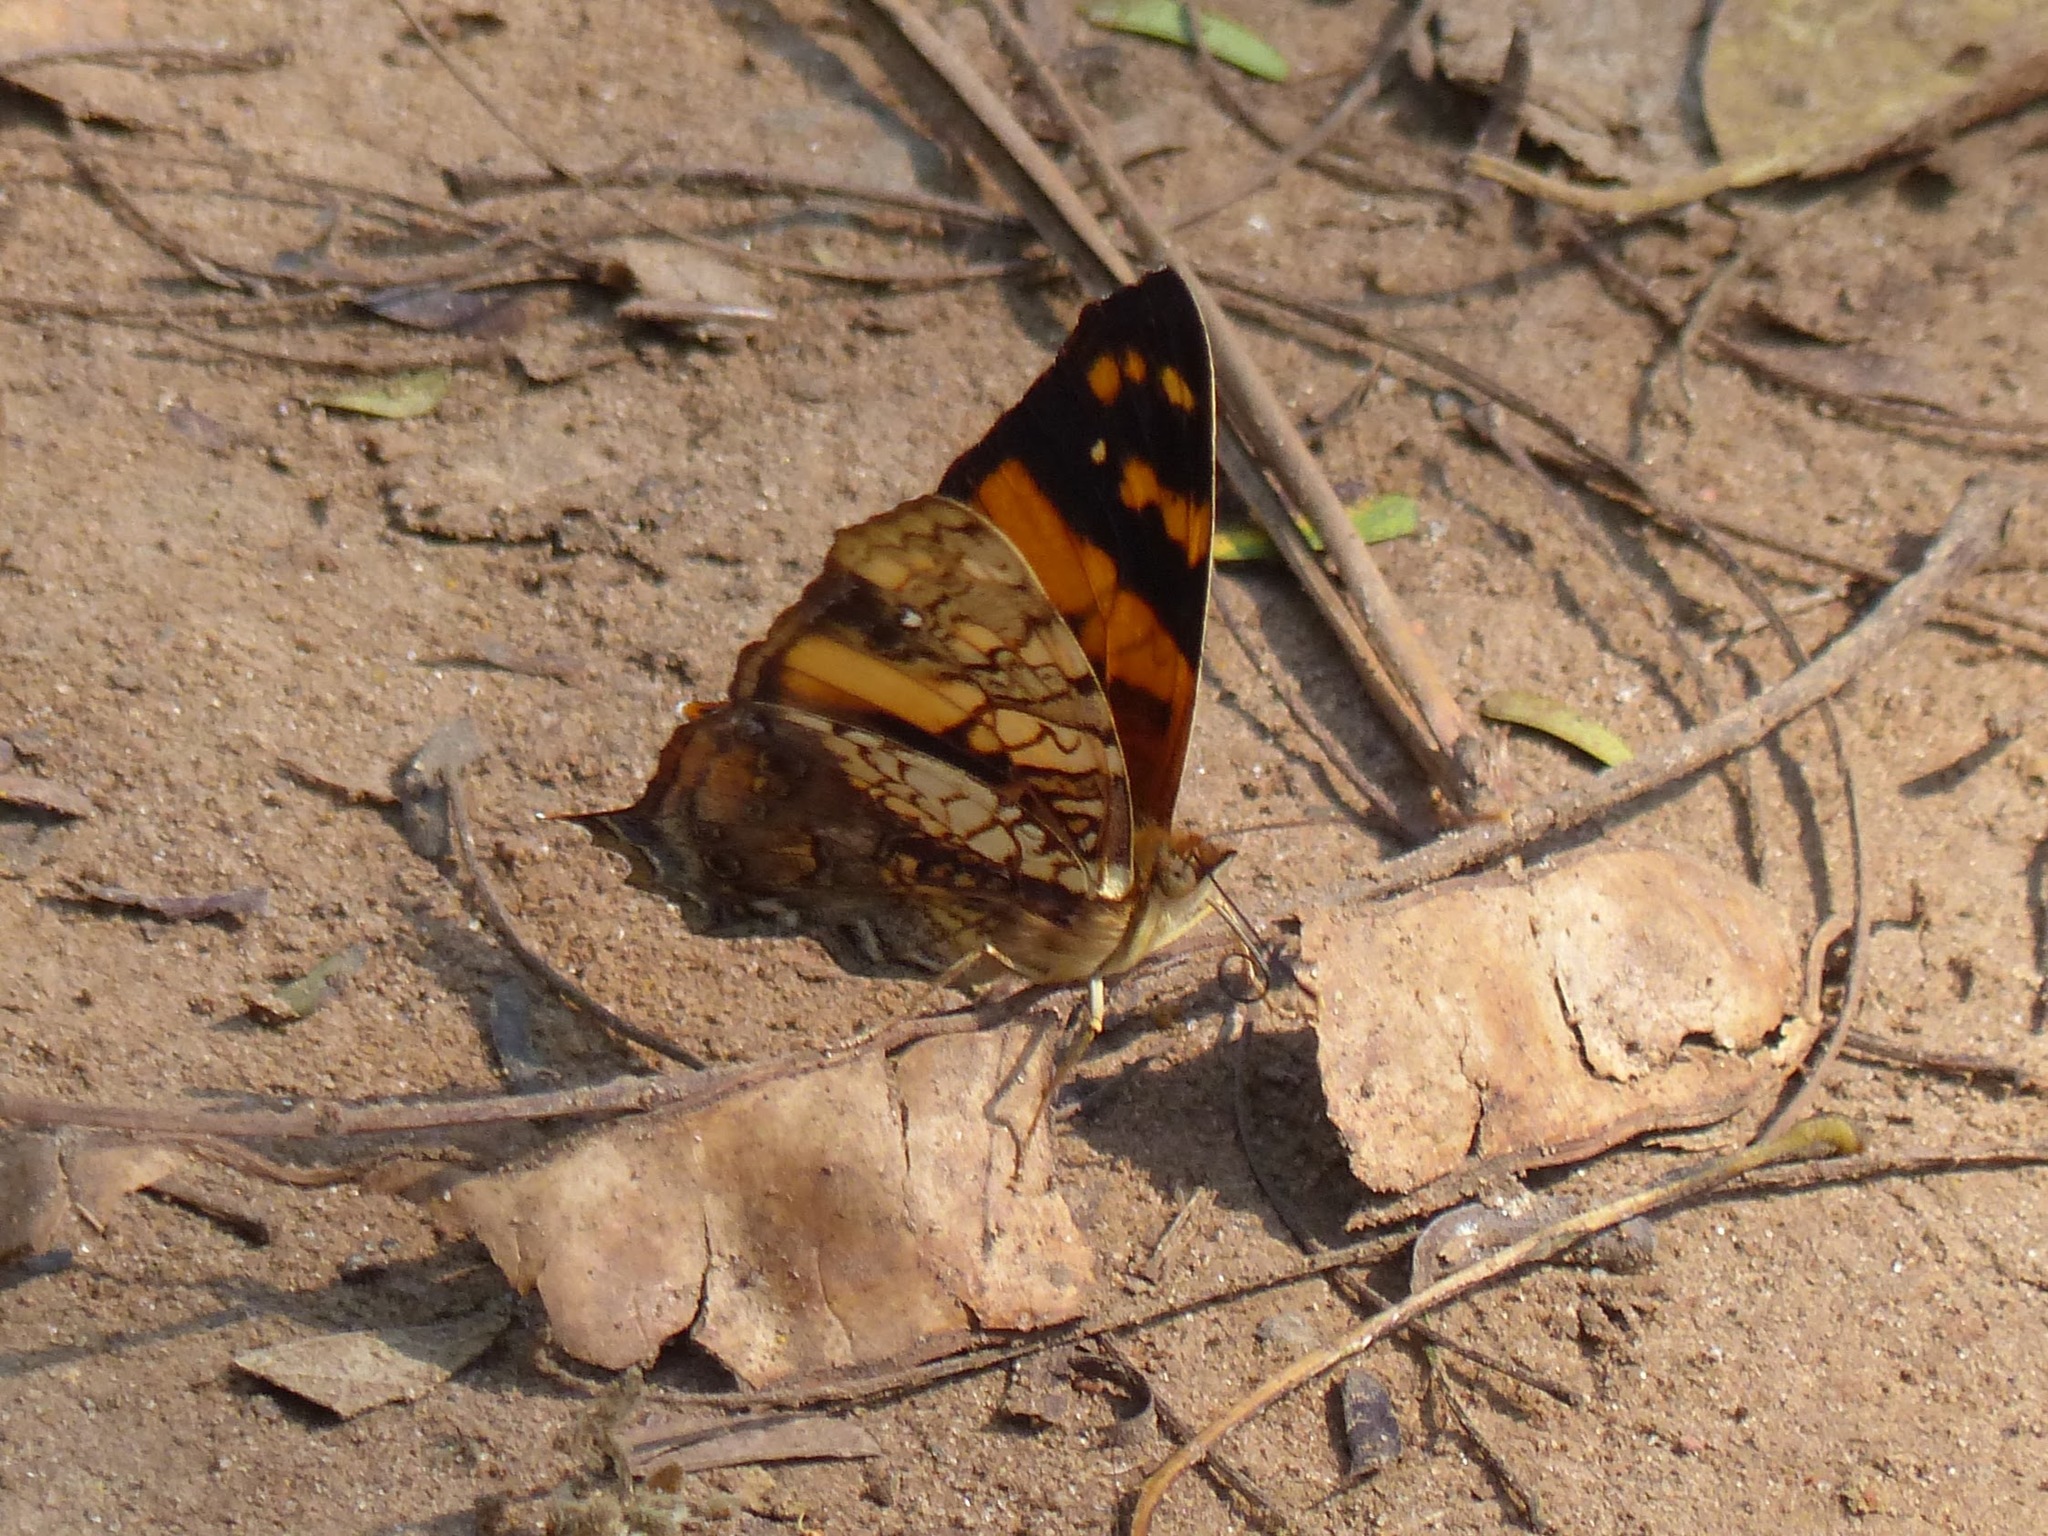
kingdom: Animalia
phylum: Arthropoda
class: Insecta
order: Lepidoptera
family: Nymphalidae
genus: Hypanartia
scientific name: Hypanartia lethe
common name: Orange mapwing
